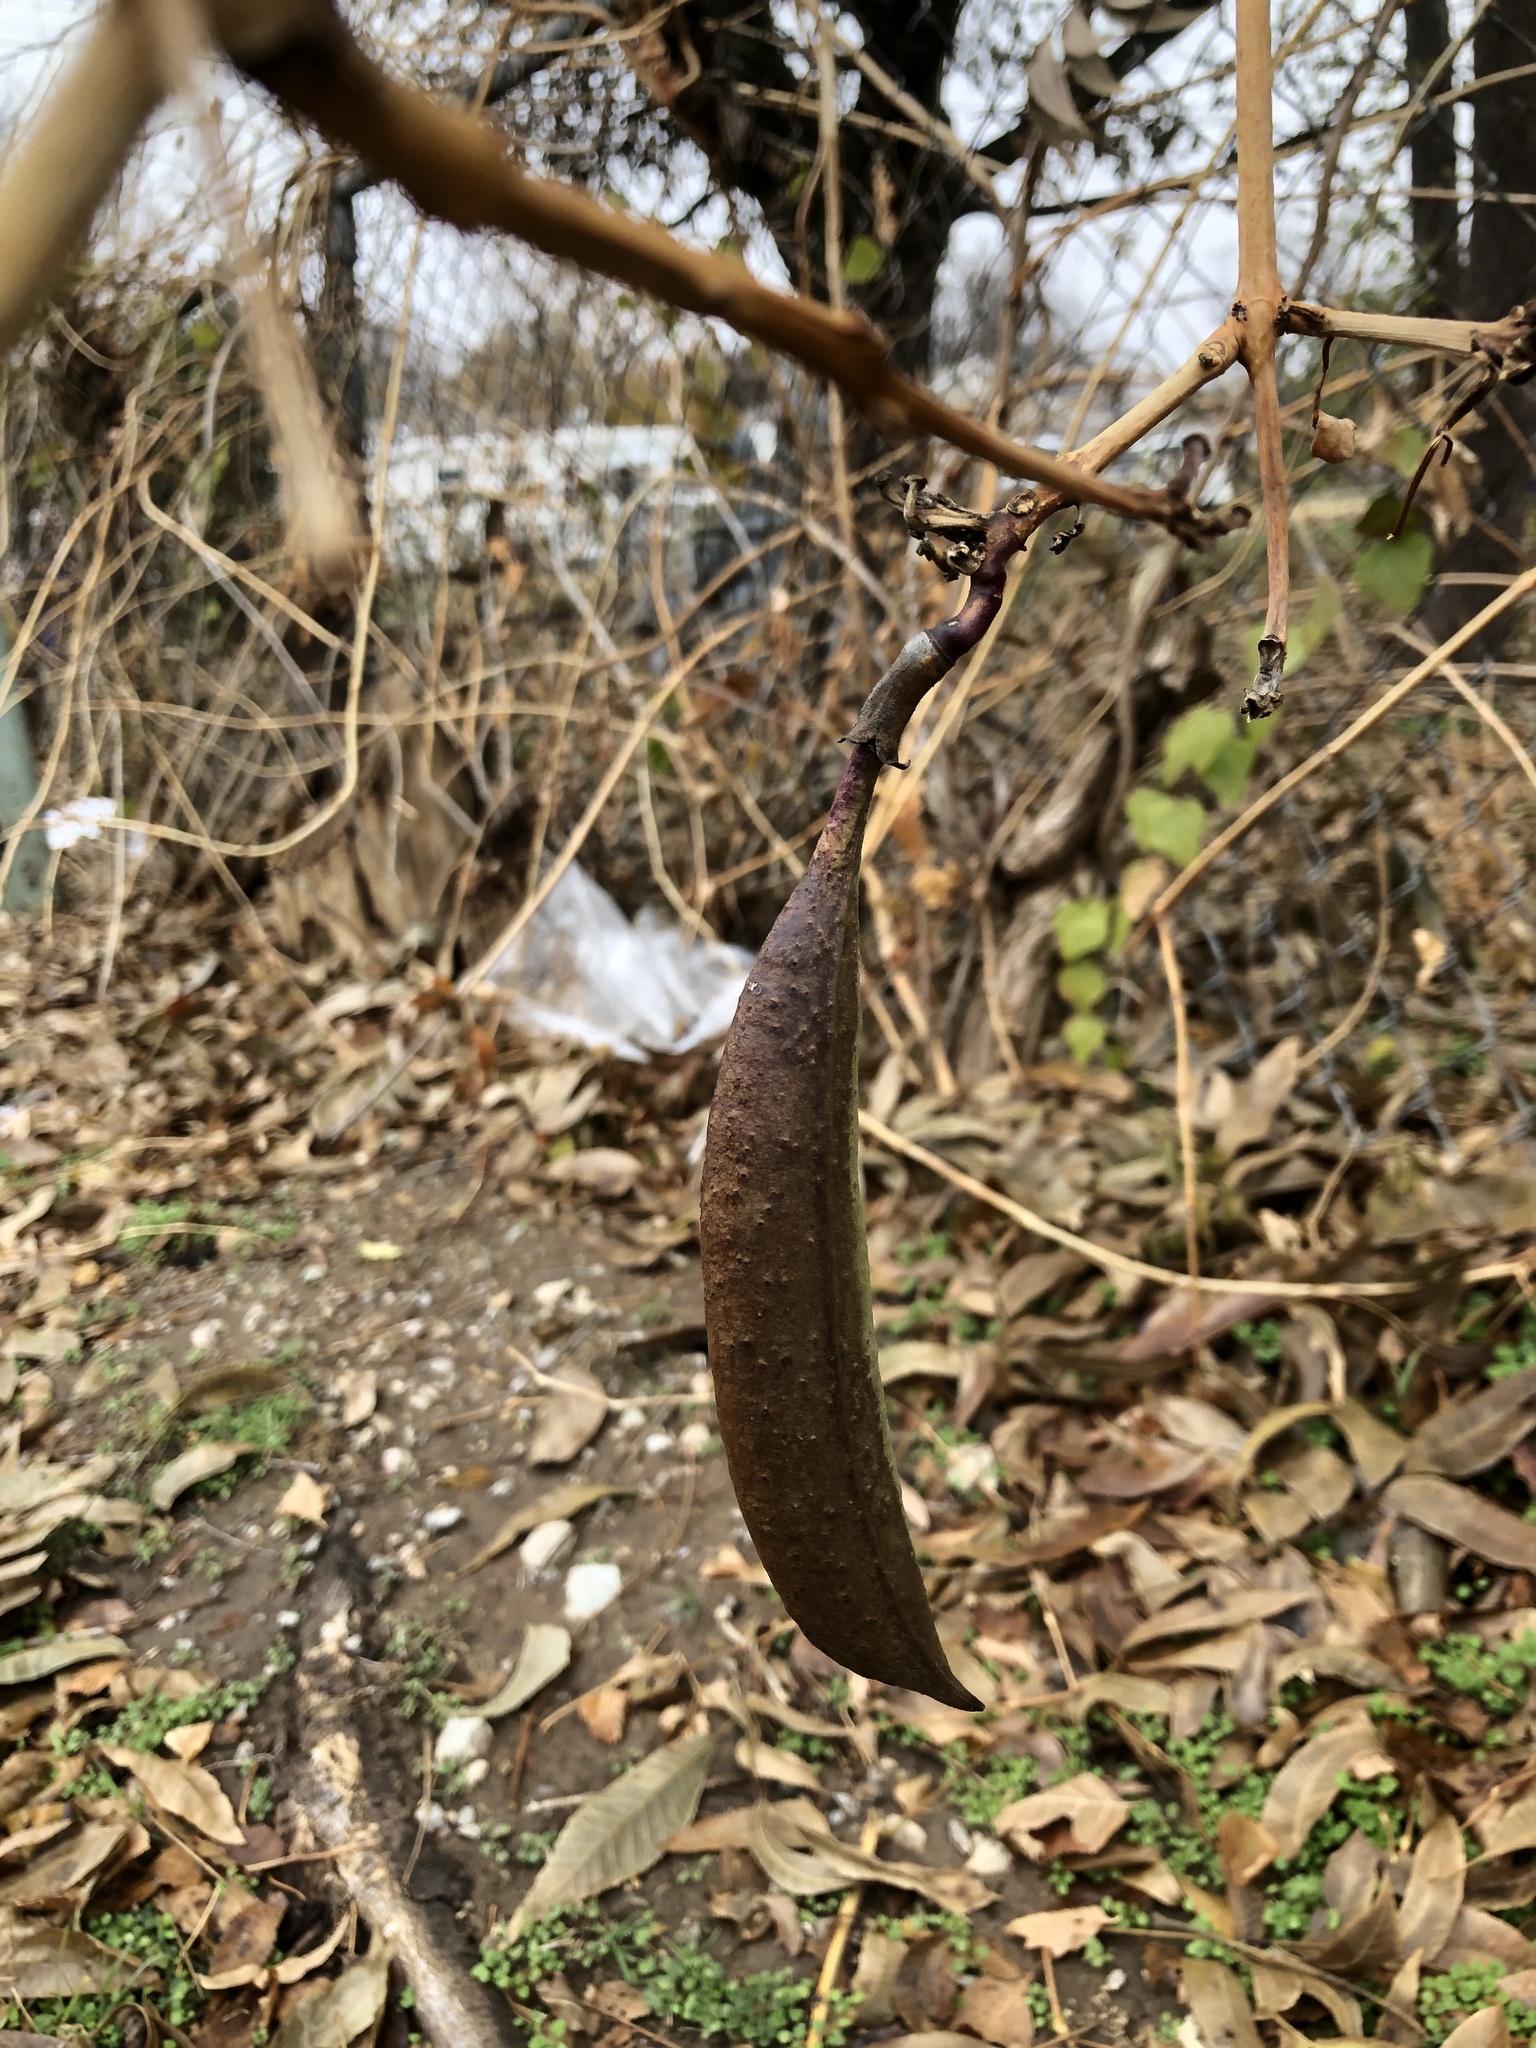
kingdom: Plantae
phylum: Tracheophyta
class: Magnoliopsida
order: Lamiales
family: Bignoniaceae
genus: Campsis
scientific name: Campsis radicans
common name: Trumpet-creeper
